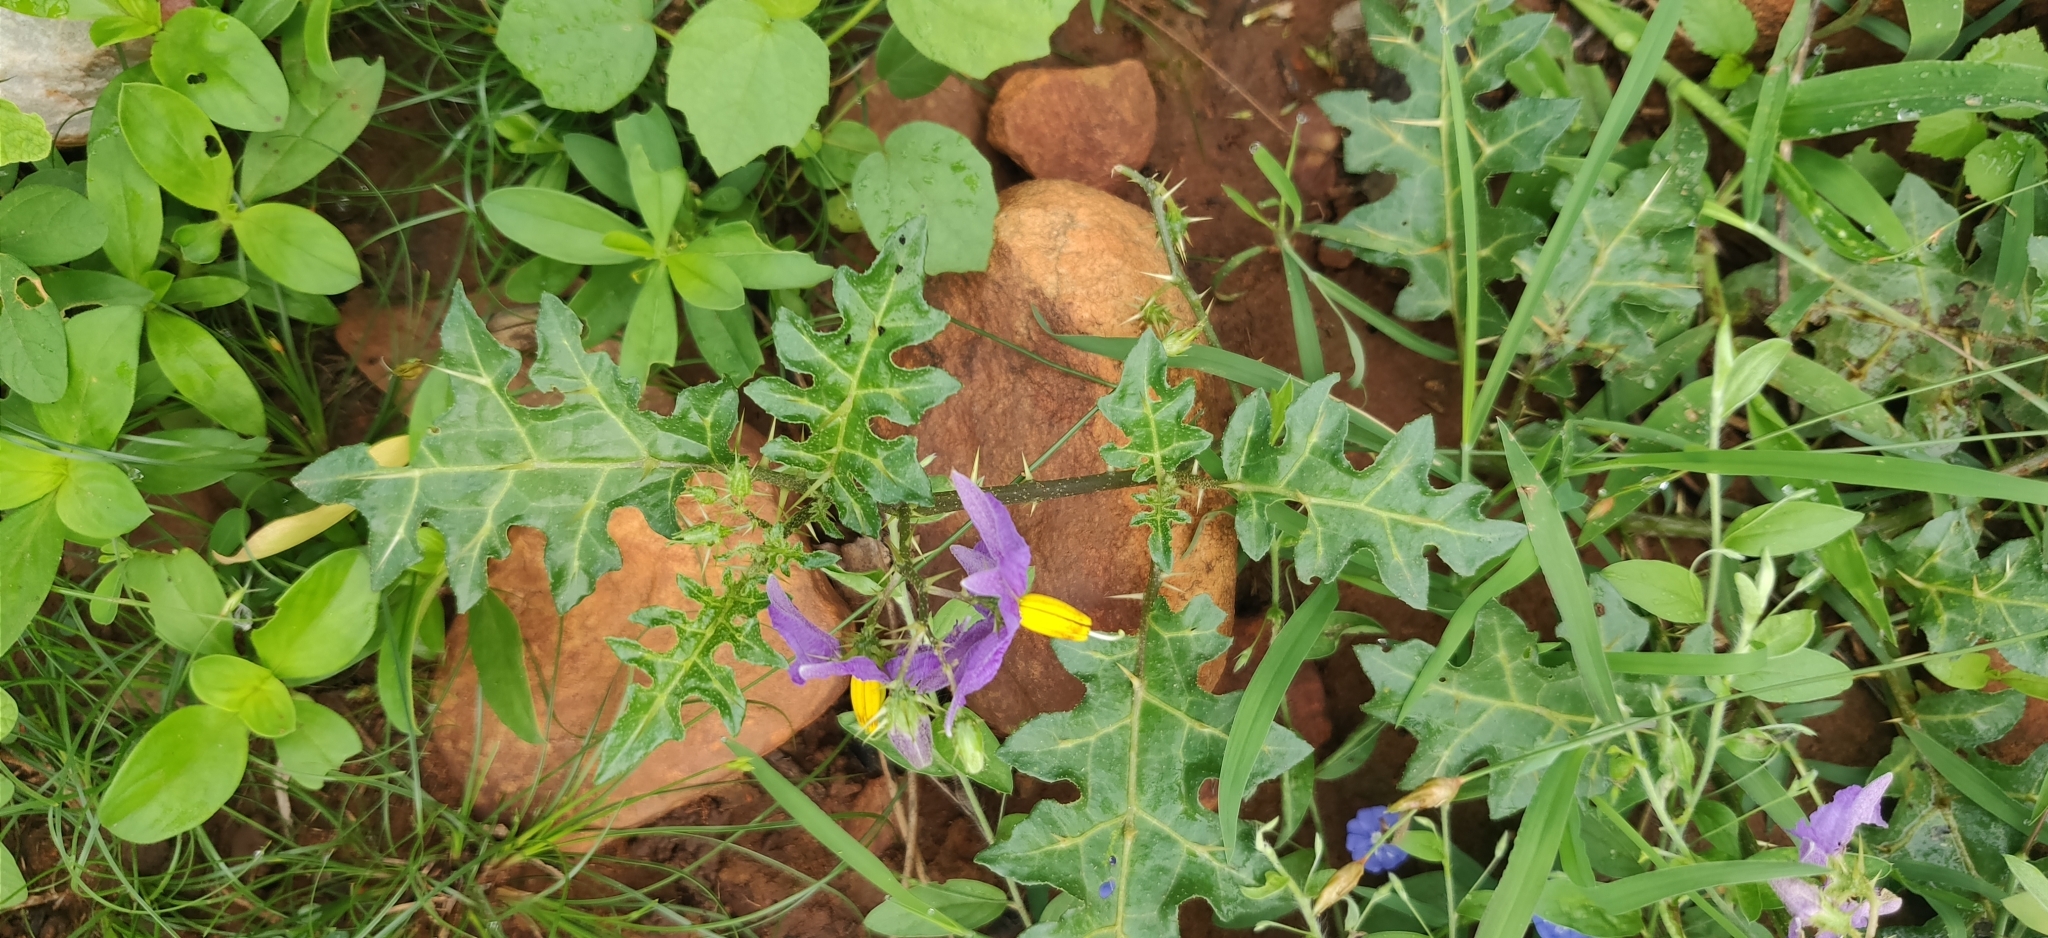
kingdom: Plantae
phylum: Tracheophyta
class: Magnoliopsida
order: Solanales
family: Solanaceae
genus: Solanum
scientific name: Solanum virginianum
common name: Surattense nightshade
